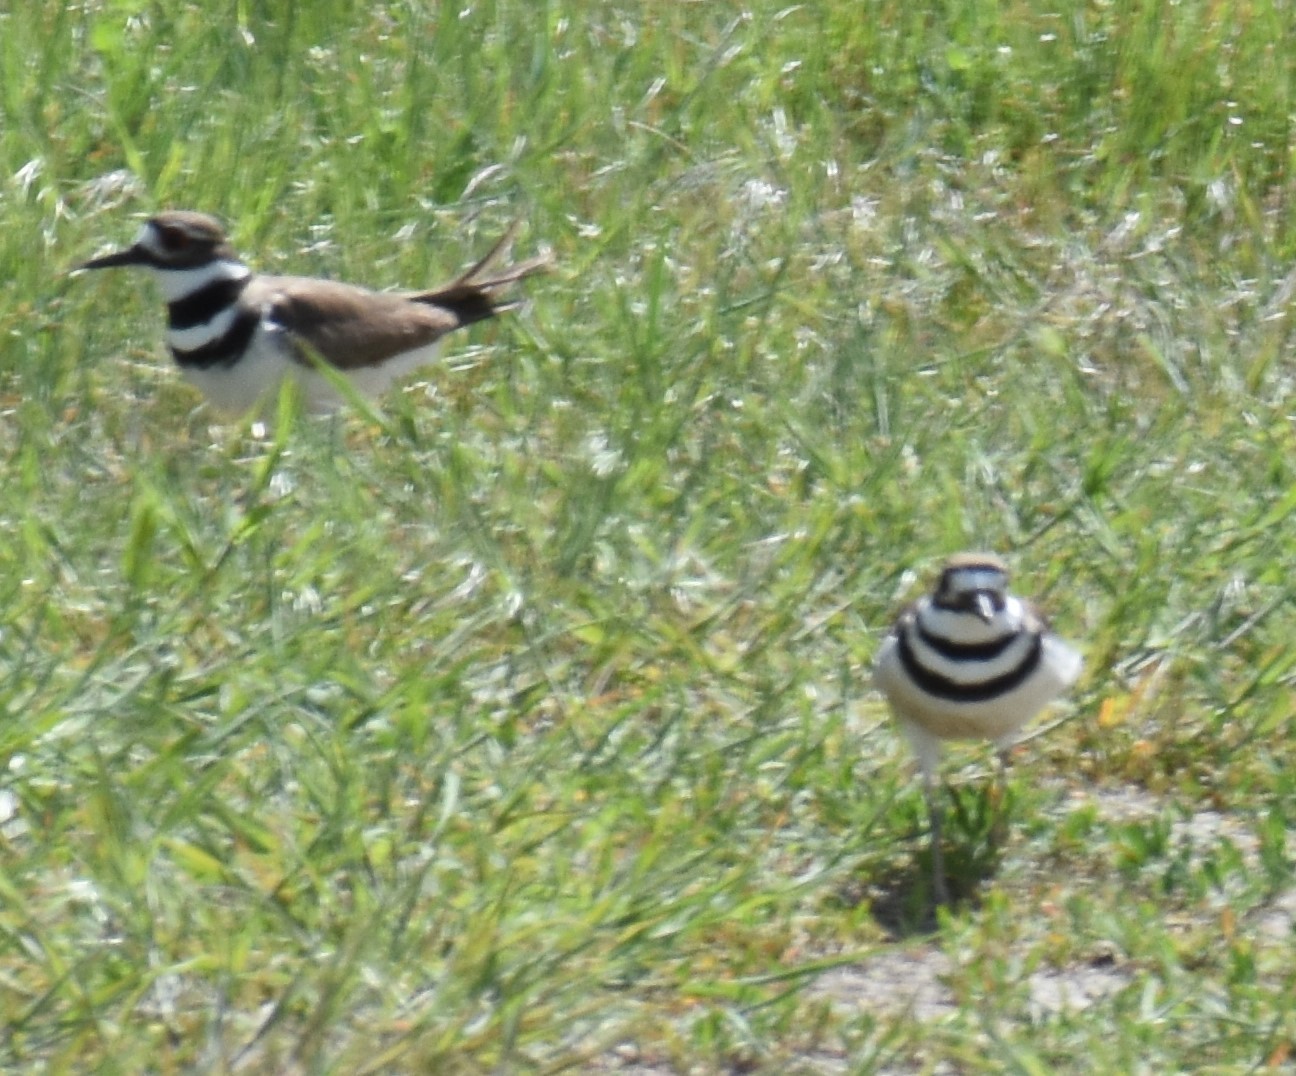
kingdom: Animalia
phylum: Chordata
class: Aves
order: Charadriiformes
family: Charadriidae
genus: Charadrius
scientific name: Charadrius vociferus
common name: Killdeer
